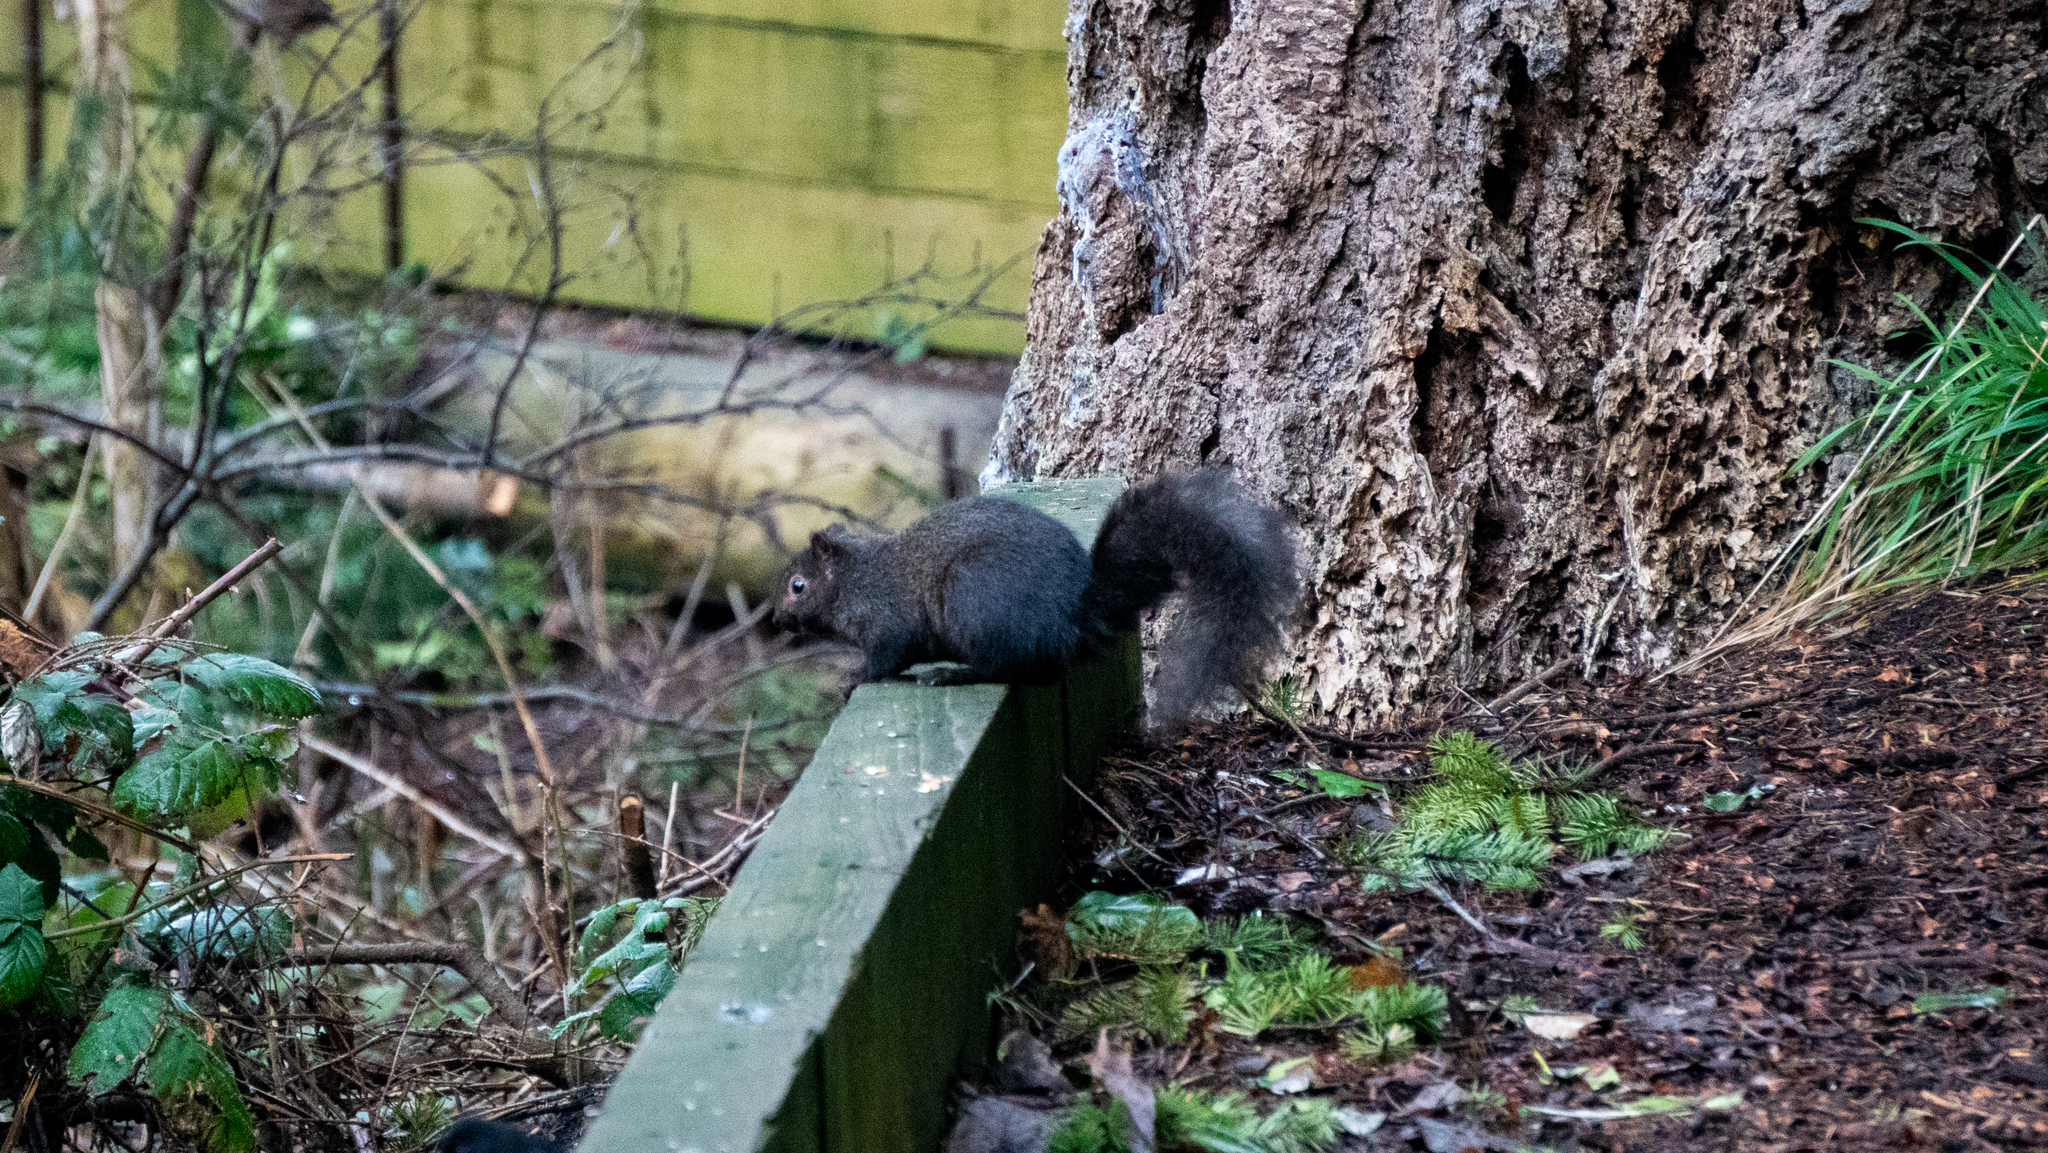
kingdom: Animalia
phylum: Chordata
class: Mammalia
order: Rodentia
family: Sciuridae
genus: Sciurus
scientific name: Sciurus carolinensis
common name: Eastern gray squirrel
